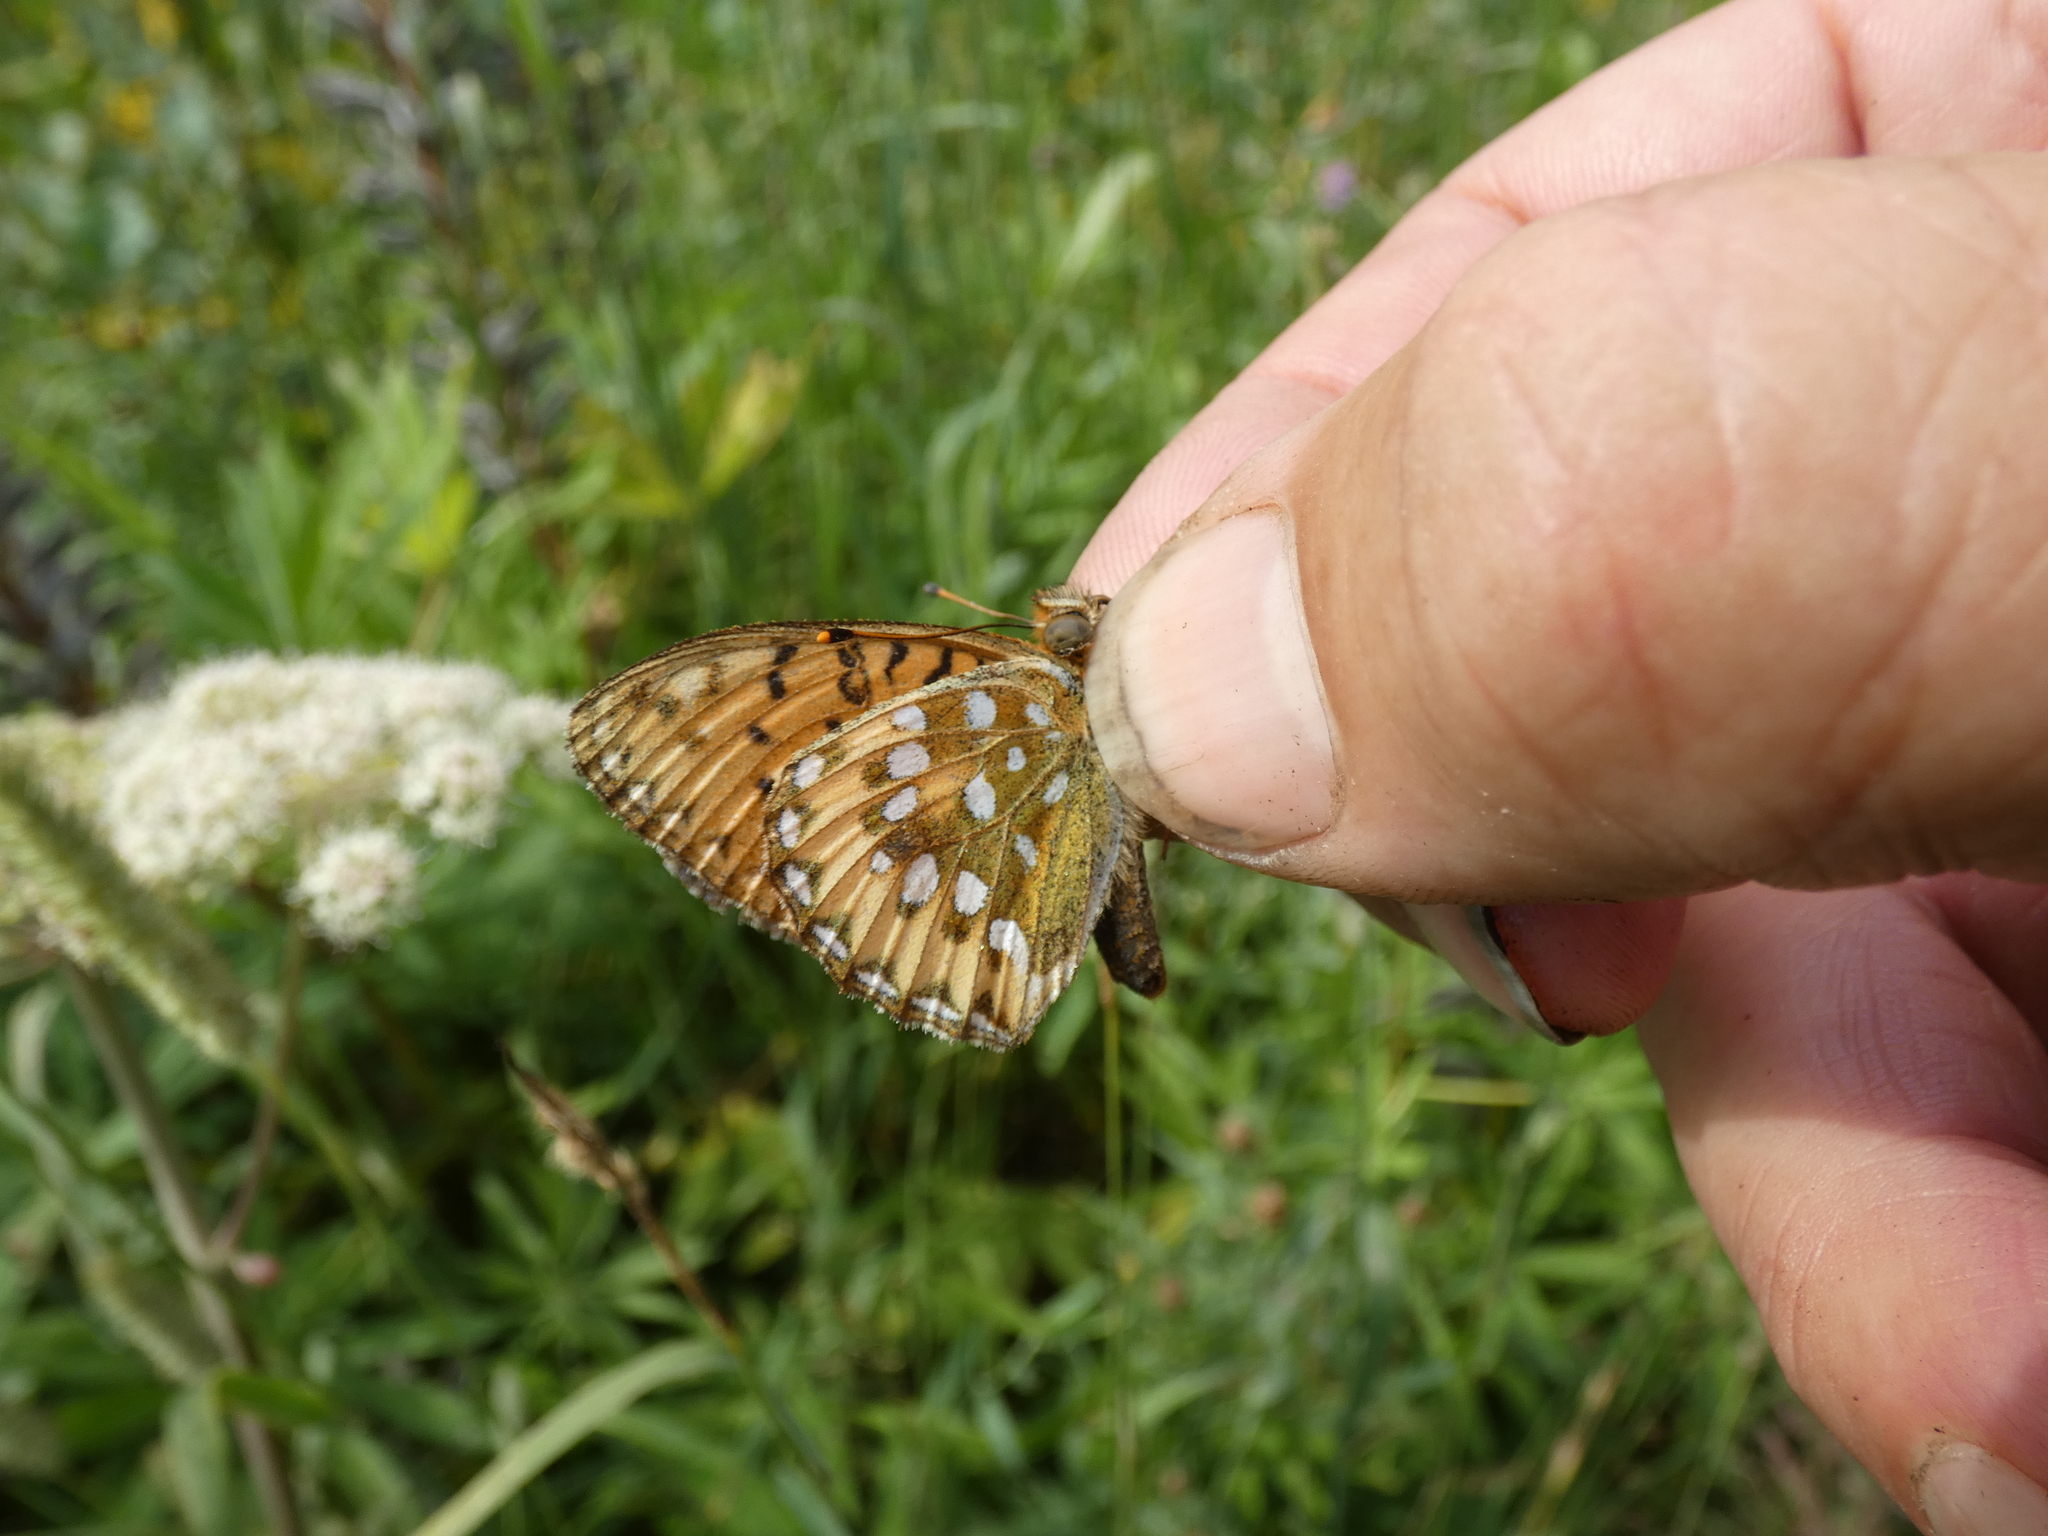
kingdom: Animalia
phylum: Arthropoda
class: Insecta
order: Lepidoptera
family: Nymphalidae
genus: Speyeria
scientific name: Speyeria aglaja
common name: Dark green fritillary
